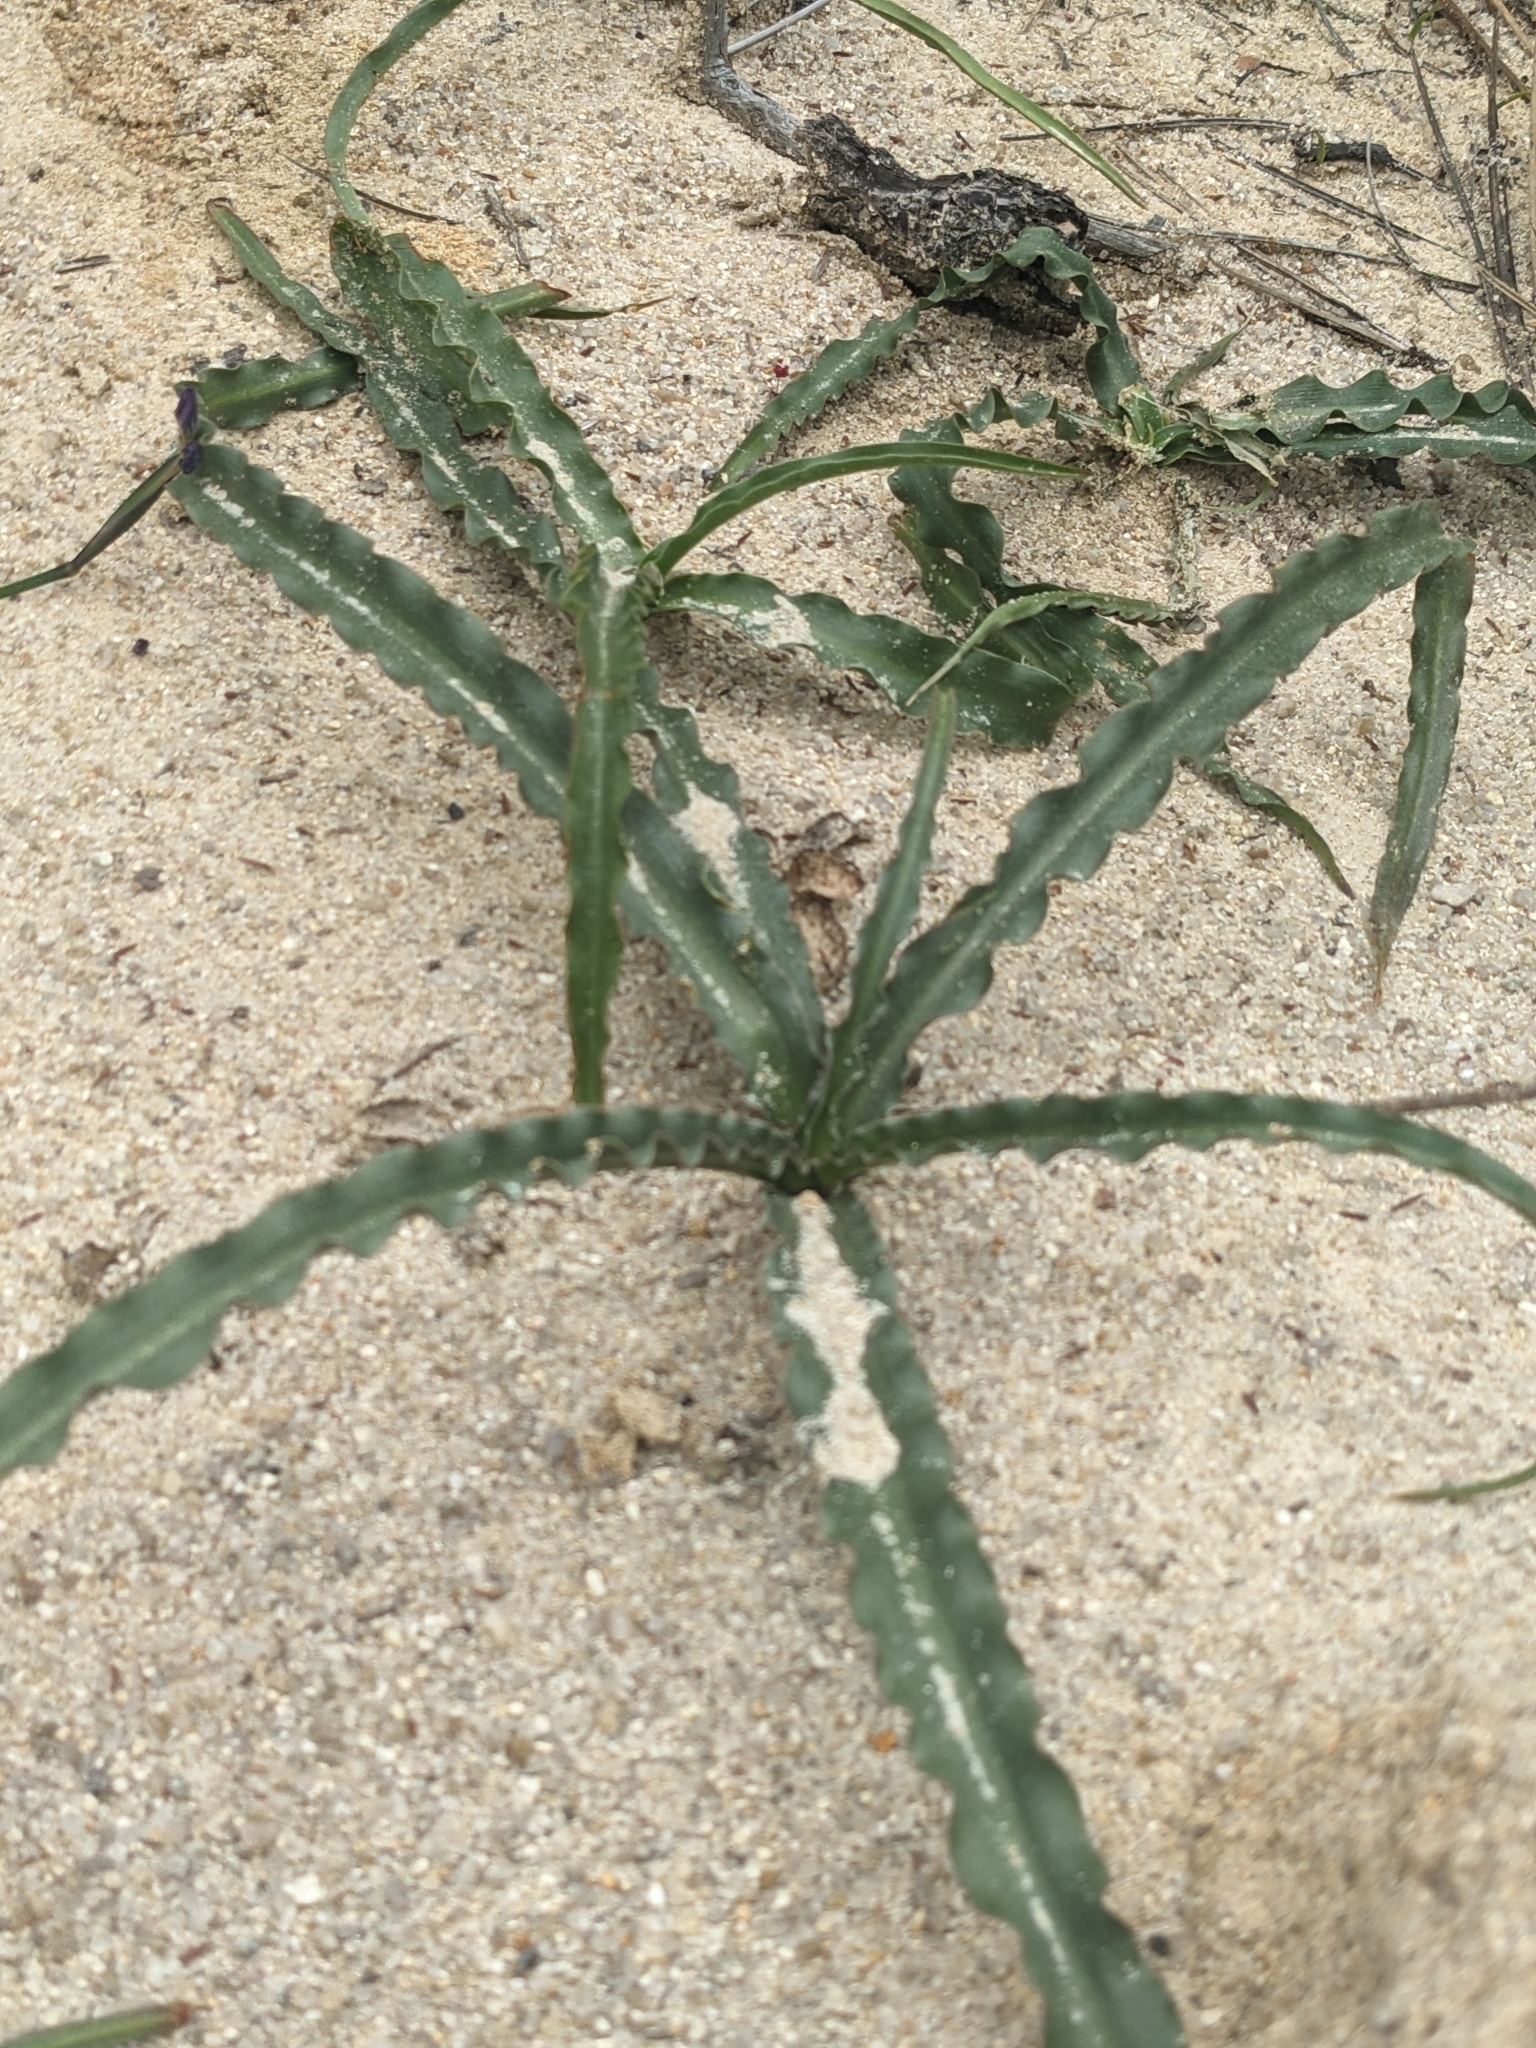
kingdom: Plantae
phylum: Tracheophyta
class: Liliopsida
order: Asparagales
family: Asparagaceae
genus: Hooveria
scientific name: Hooveria parviflora
